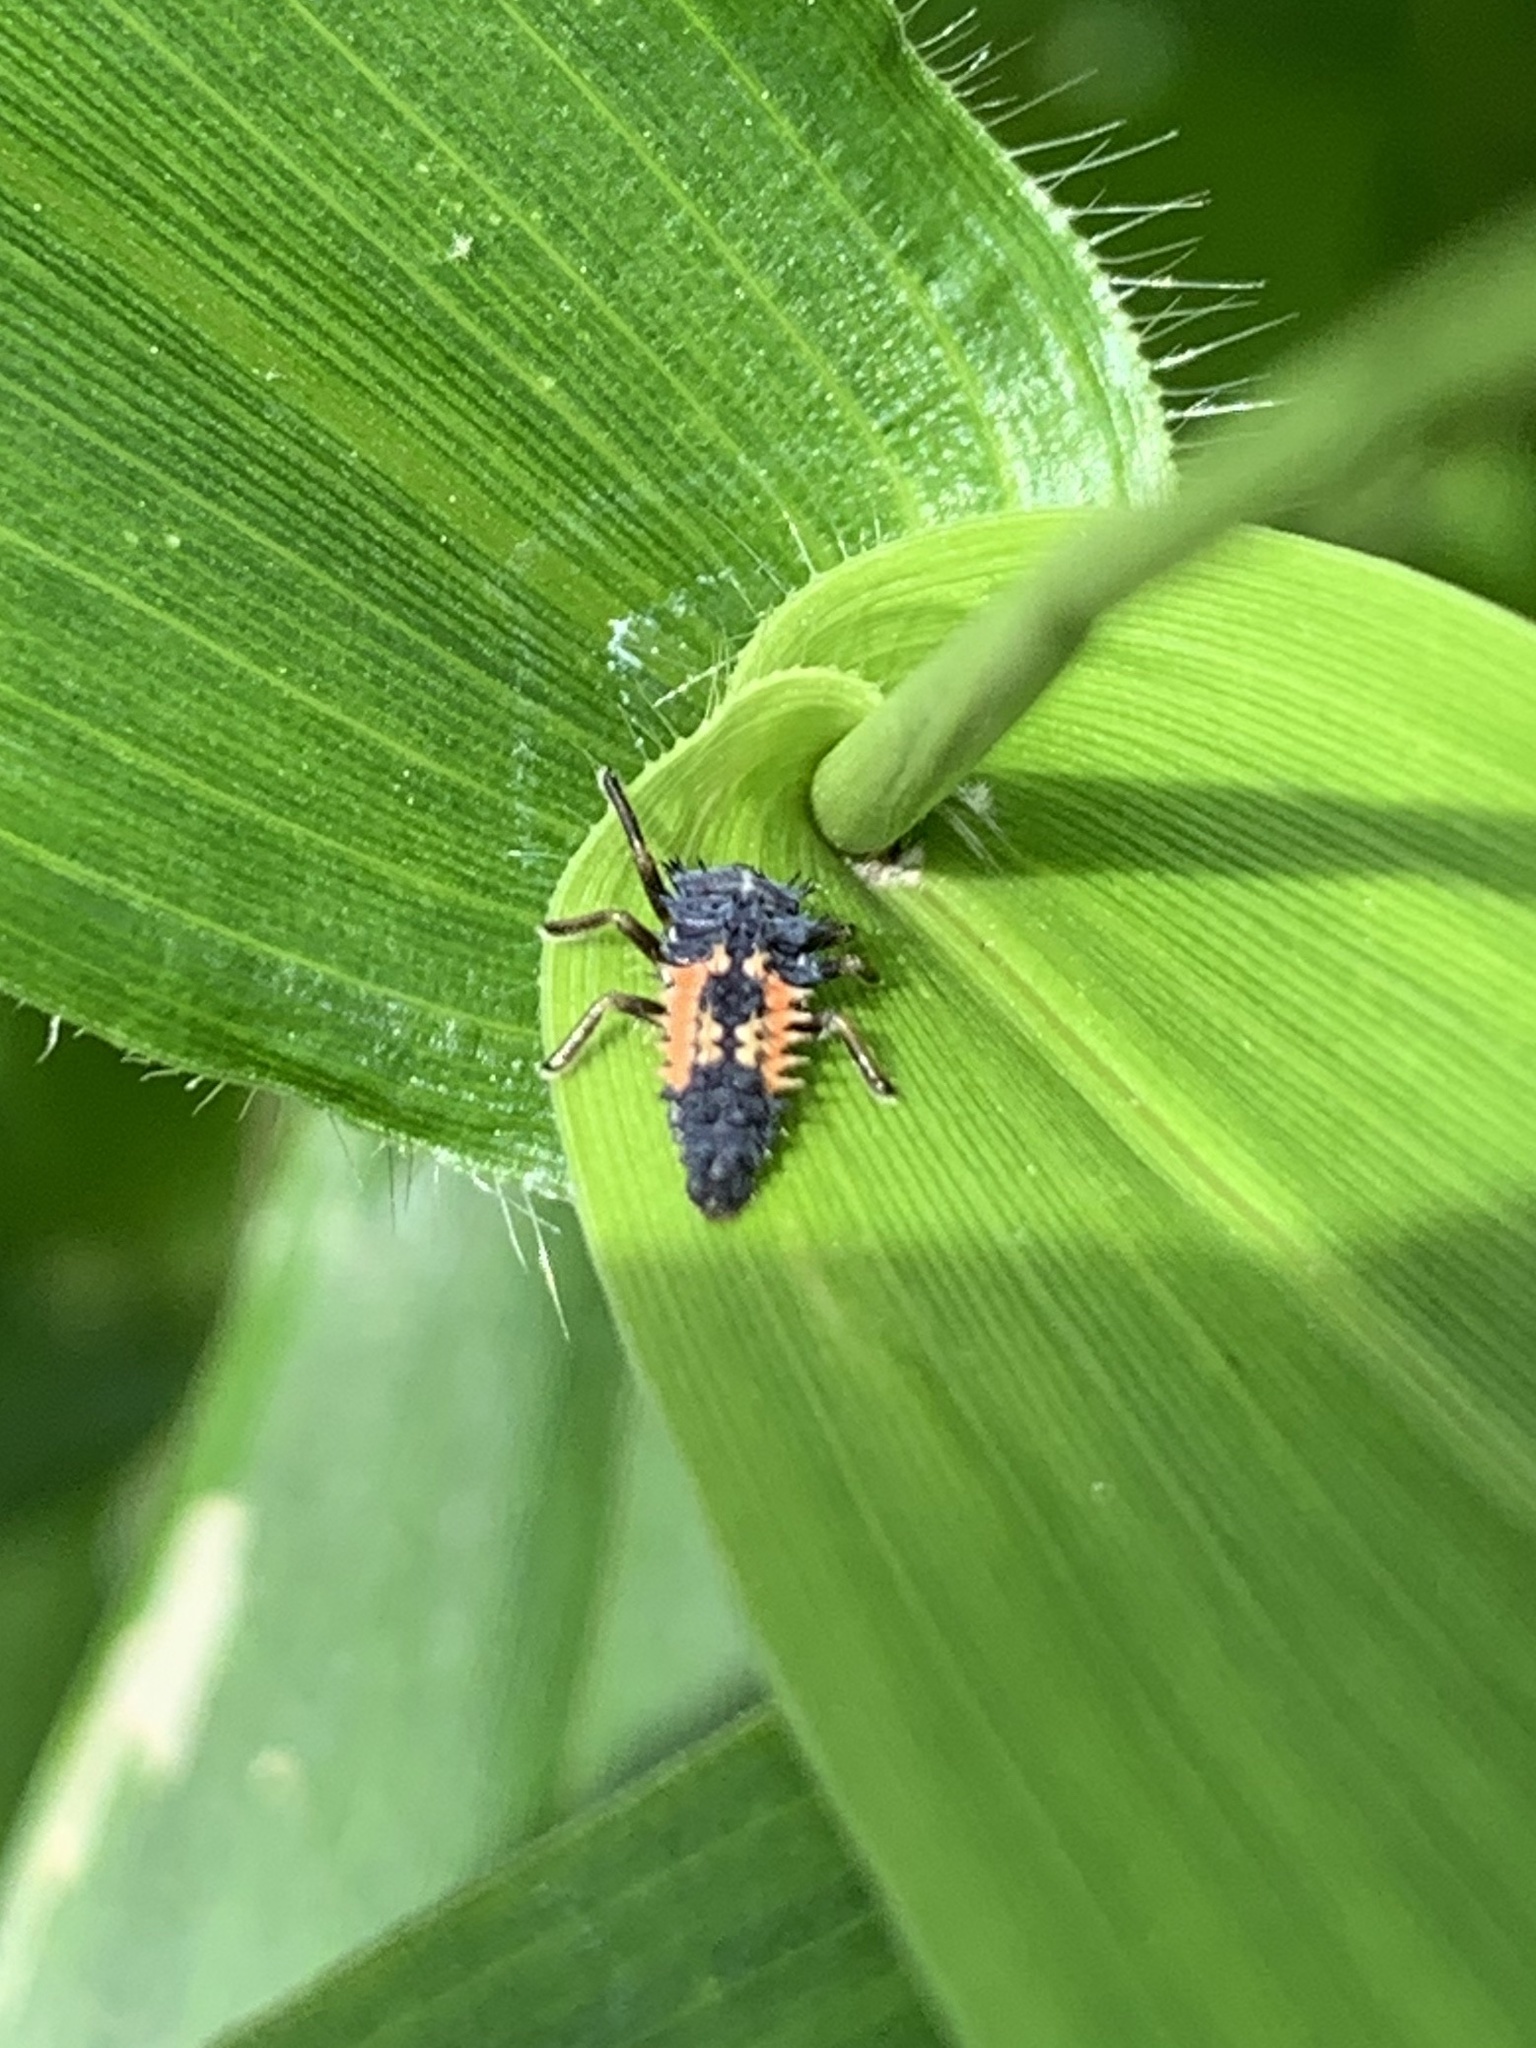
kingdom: Animalia
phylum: Arthropoda
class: Insecta
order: Coleoptera
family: Coccinellidae
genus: Harmonia
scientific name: Harmonia axyridis
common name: Harlequin ladybird
